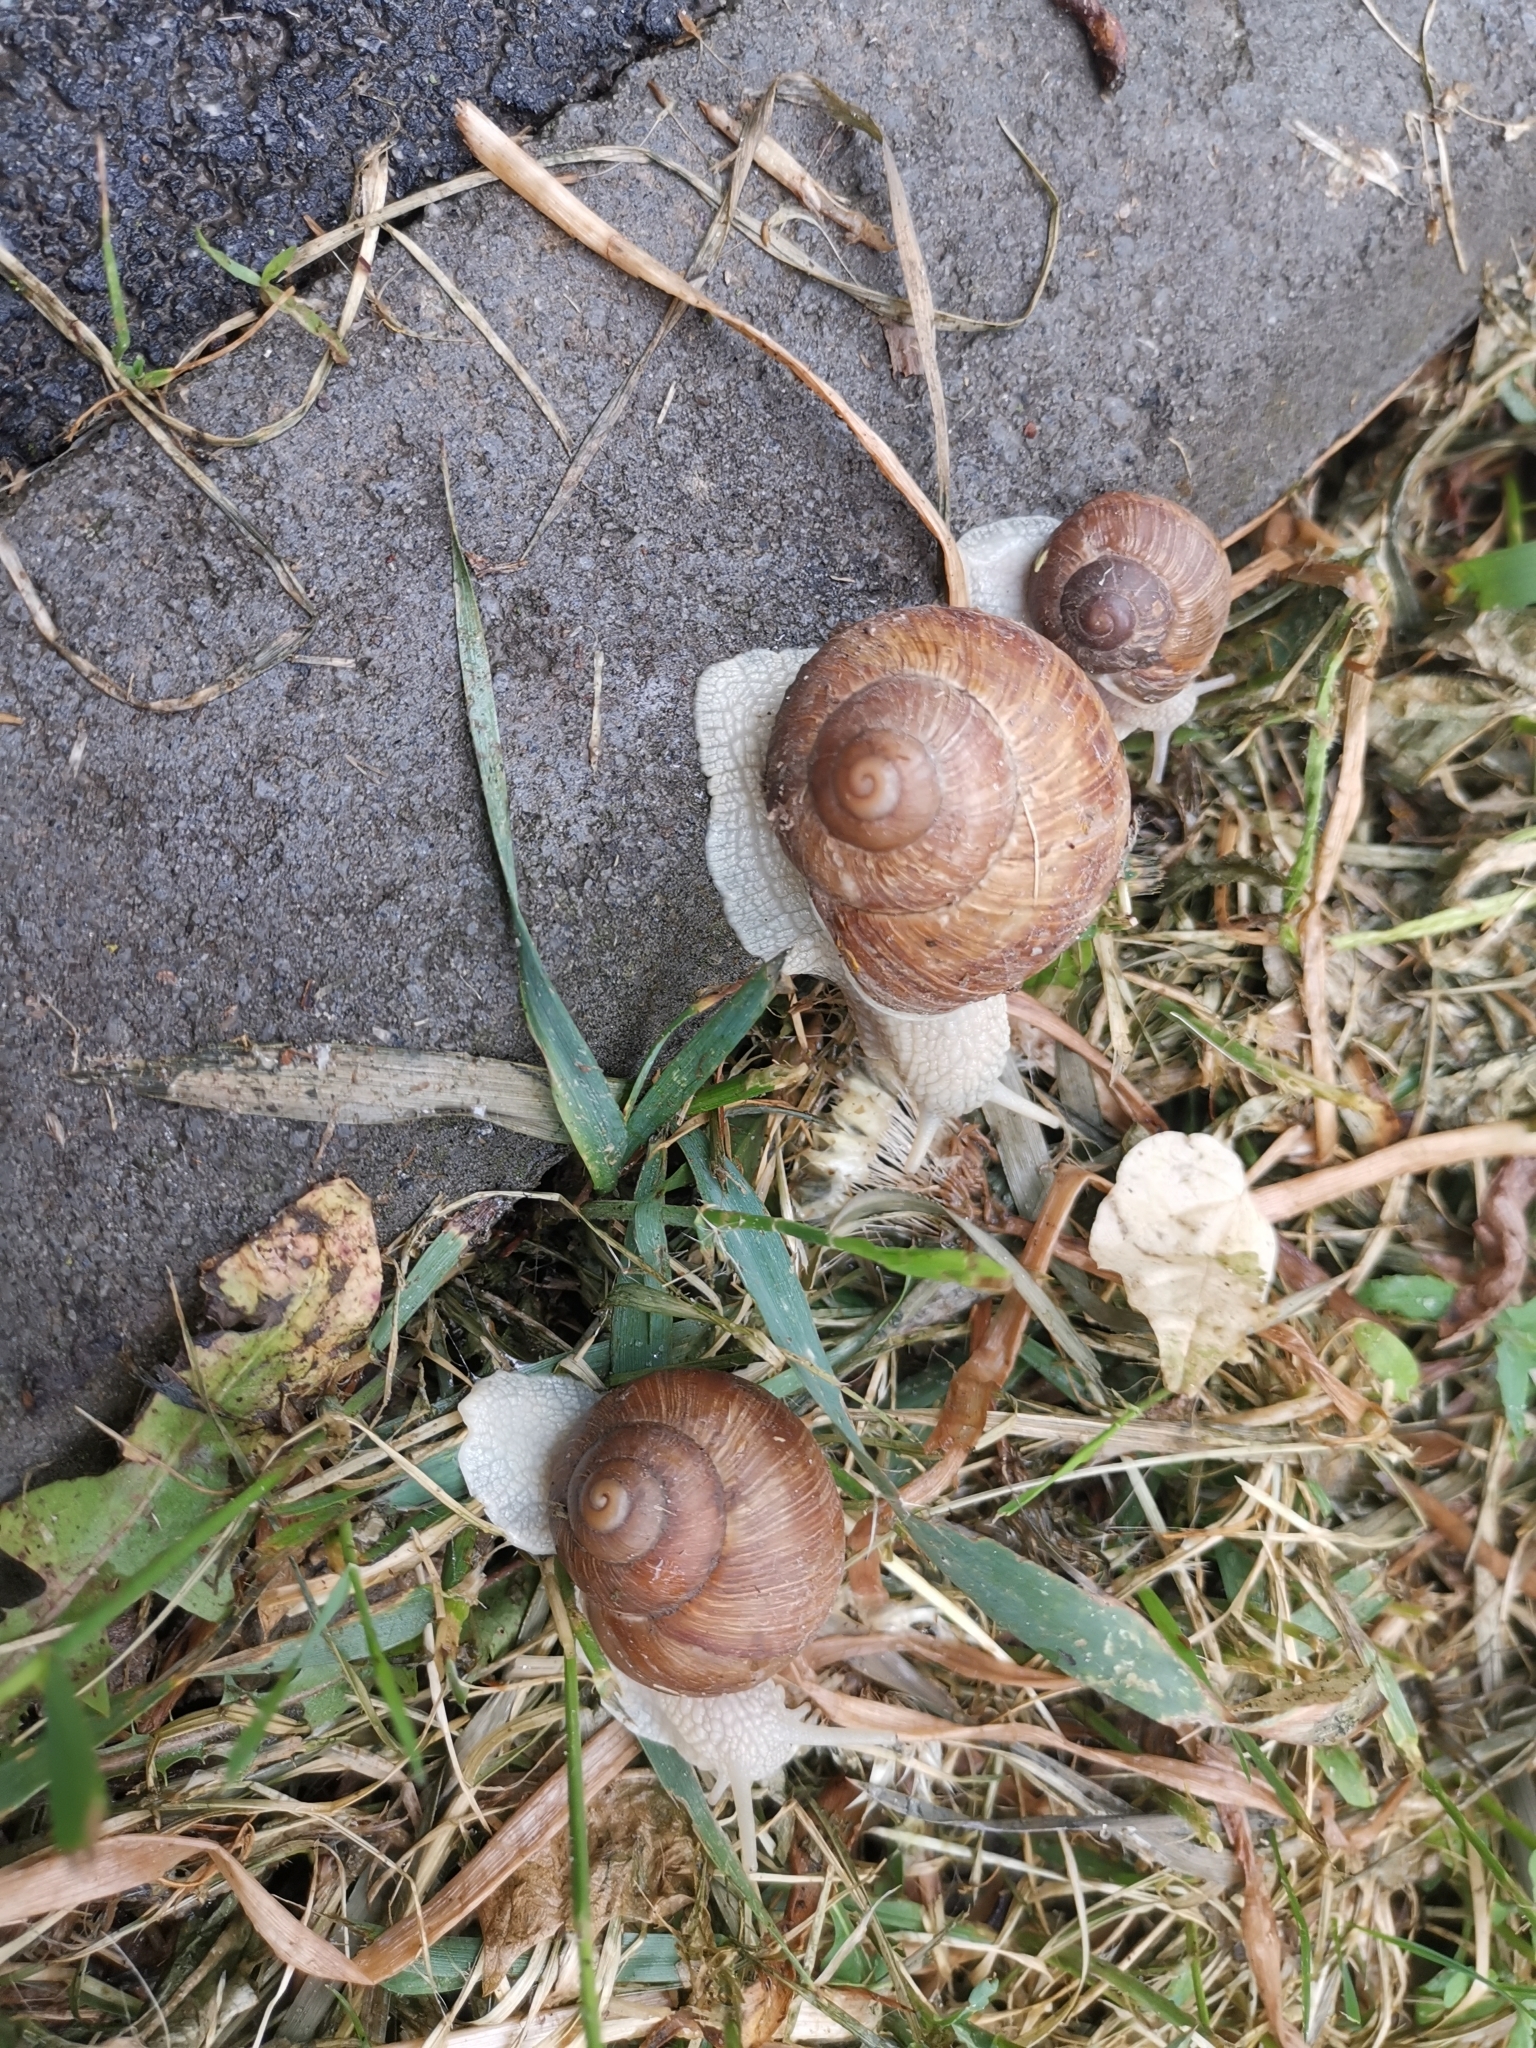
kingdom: Animalia
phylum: Mollusca
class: Gastropoda
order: Stylommatophora
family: Helicidae
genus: Helix
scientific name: Helix pomatia
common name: Roman snail
